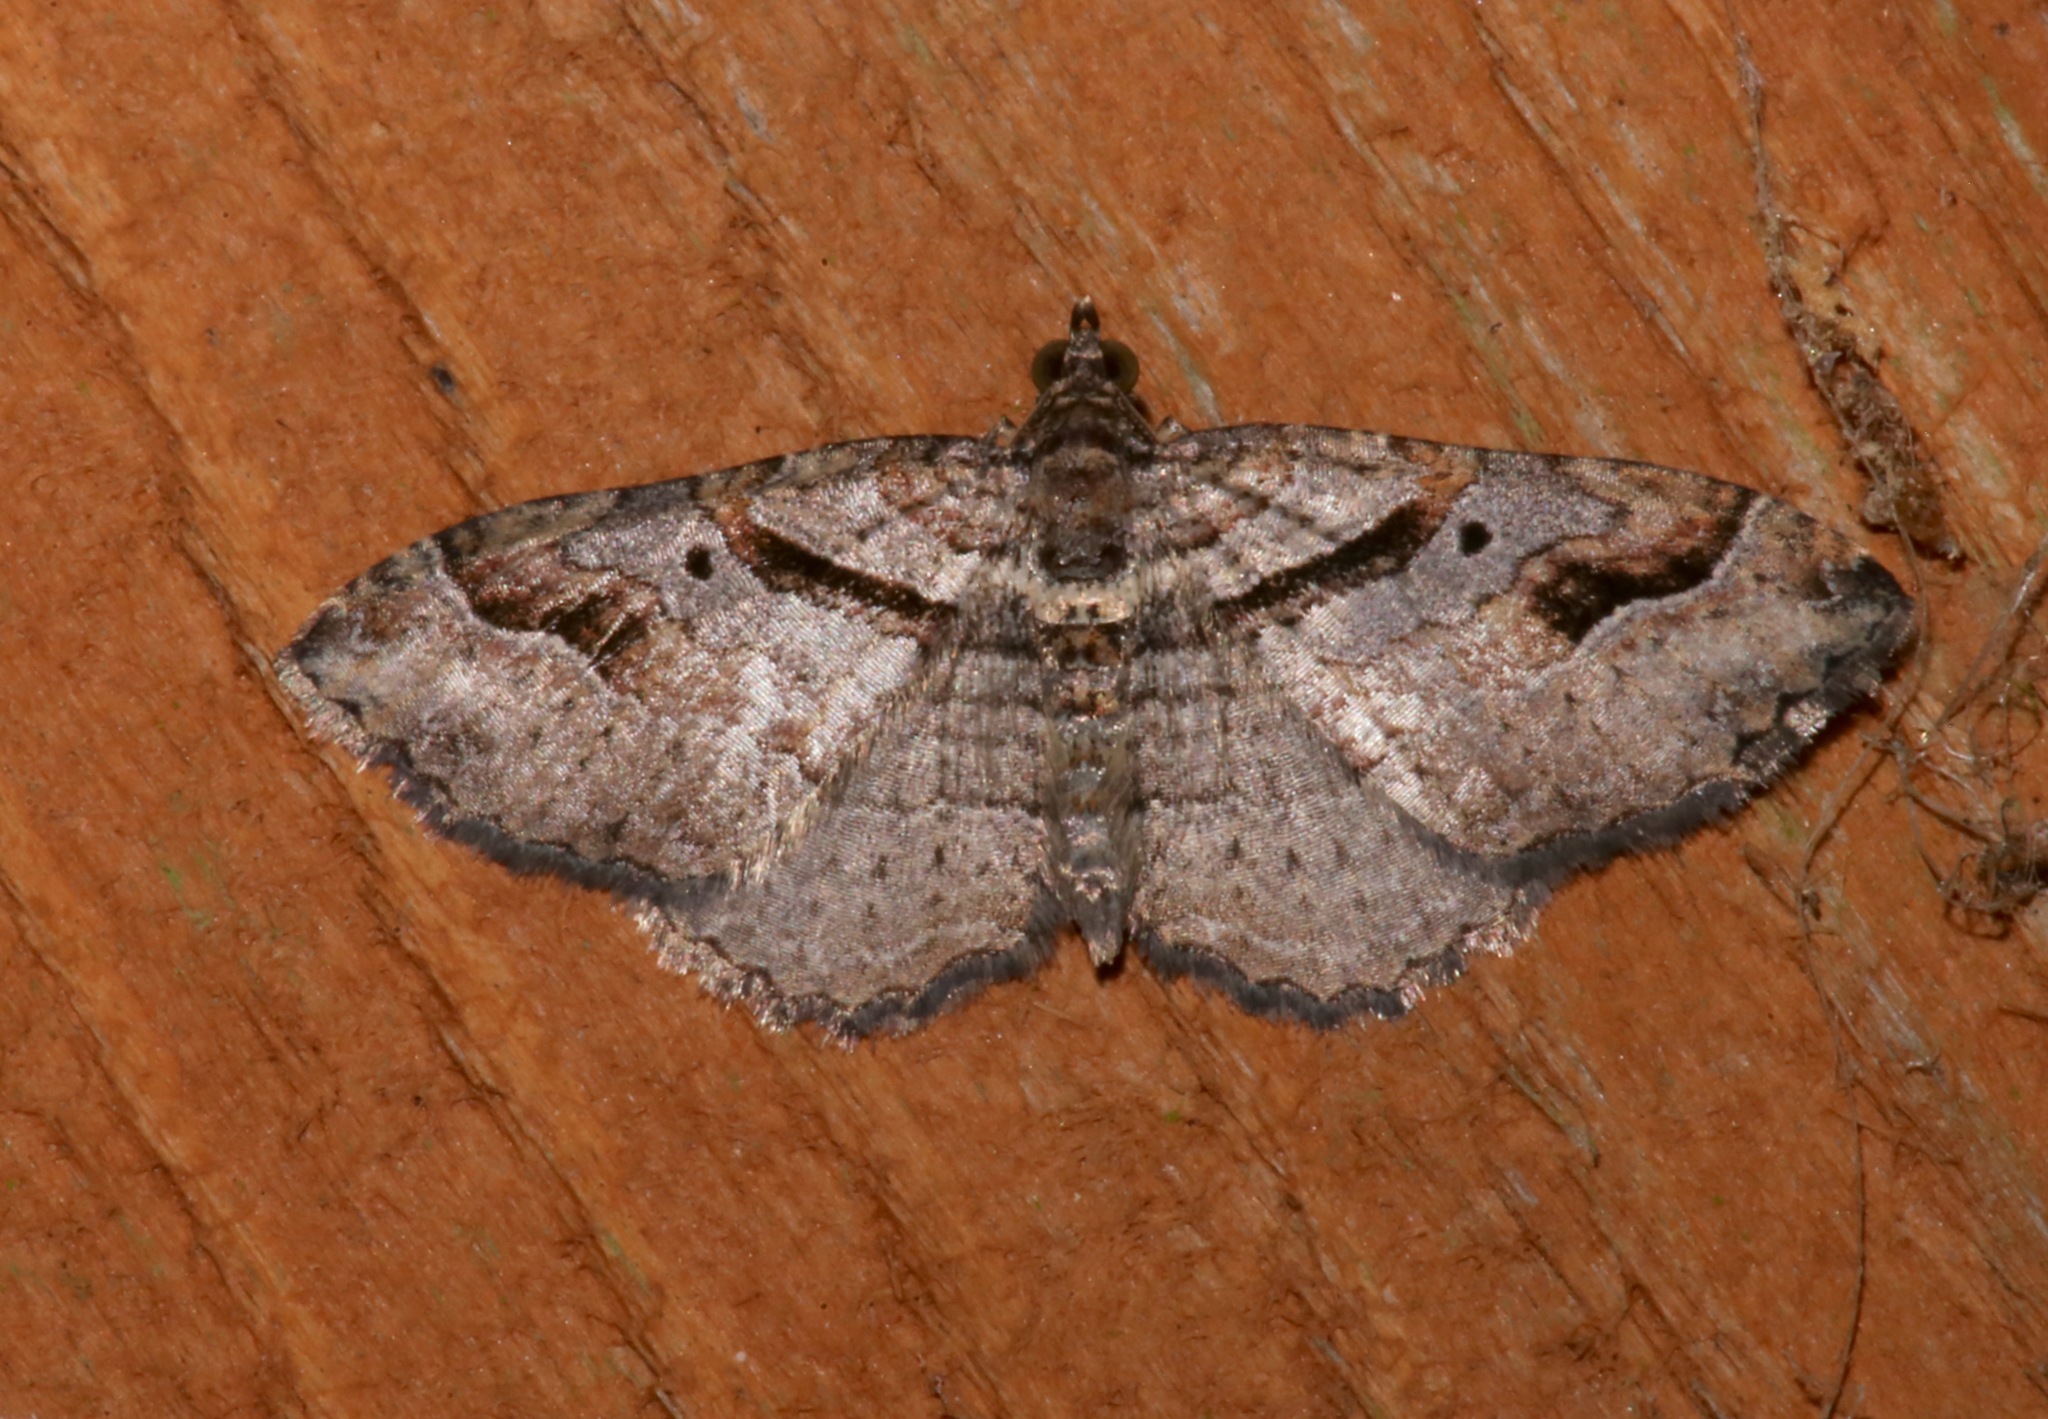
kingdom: Animalia
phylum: Arthropoda
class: Insecta
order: Lepidoptera
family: Geometridae
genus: Costaconvexa
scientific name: Costaconvexa centrostrigaria
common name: Bent-line carpet
